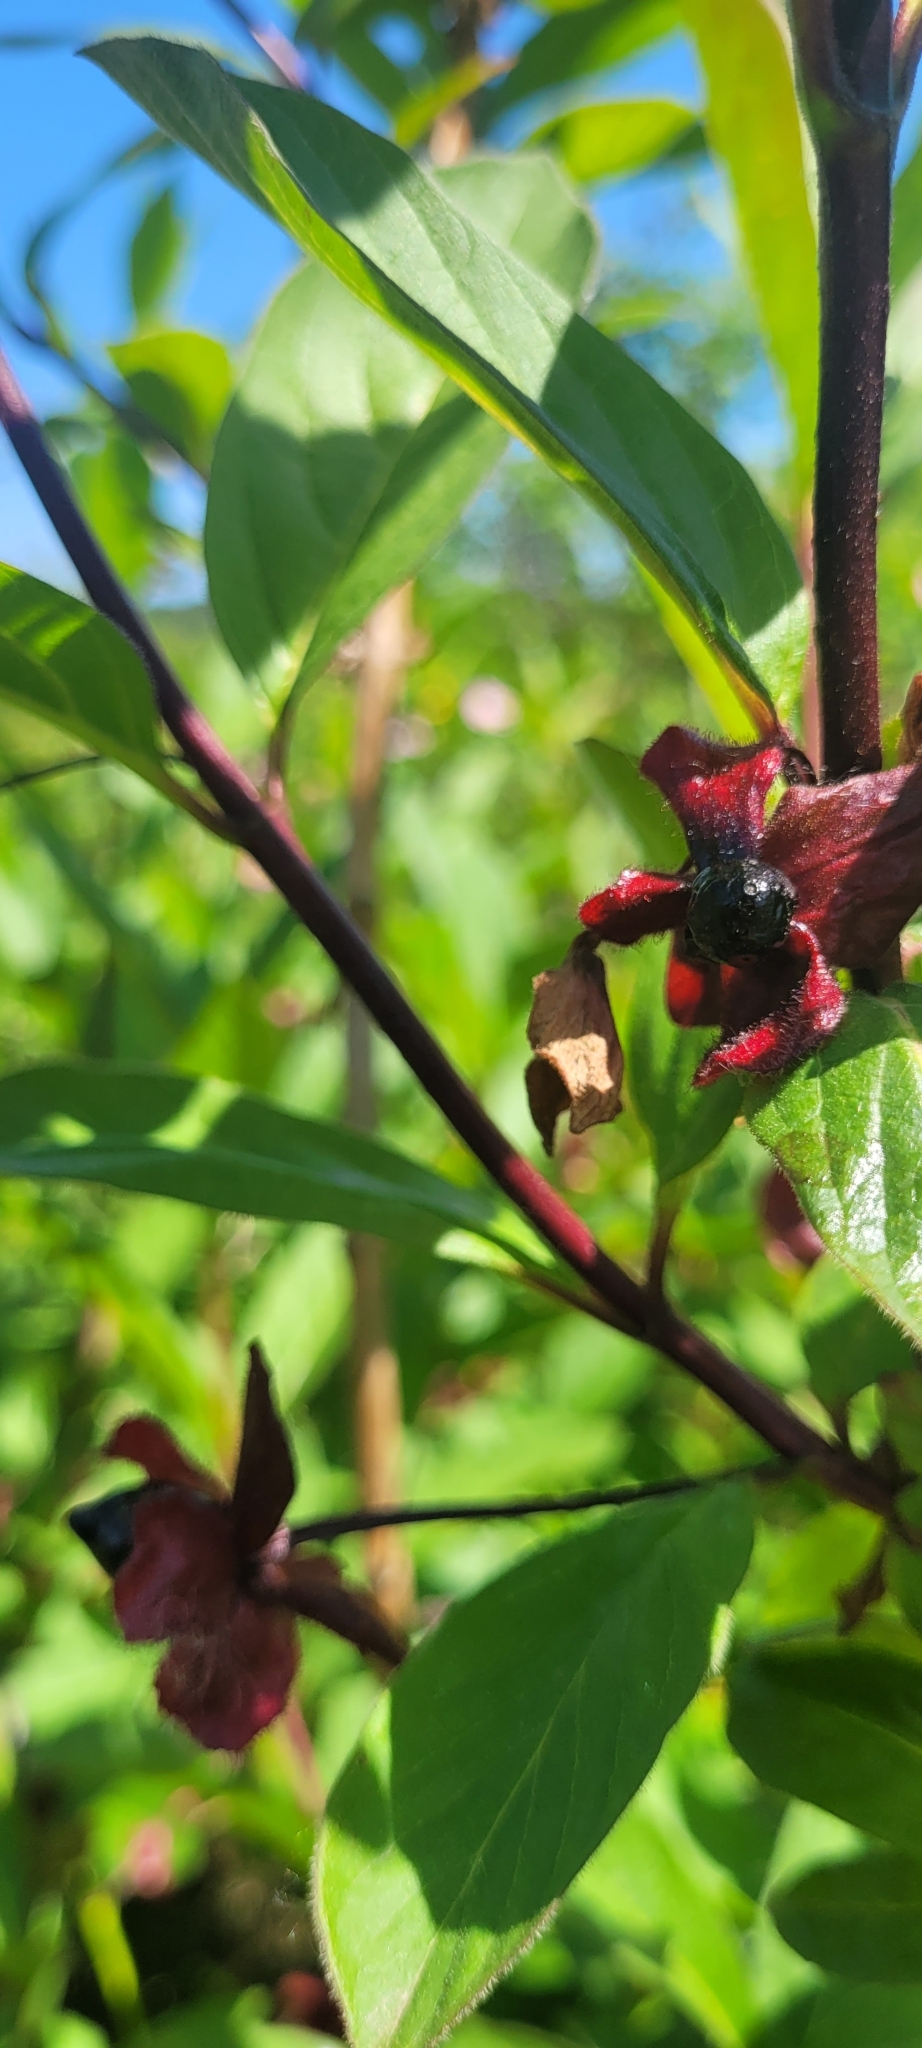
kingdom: Plantae
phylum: Tracheophyta
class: Magnoliopsida
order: Dipsacales
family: Caprifoliaceae
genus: Lonicera
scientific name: Lonicera involucrata
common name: Californian honeysuckle
